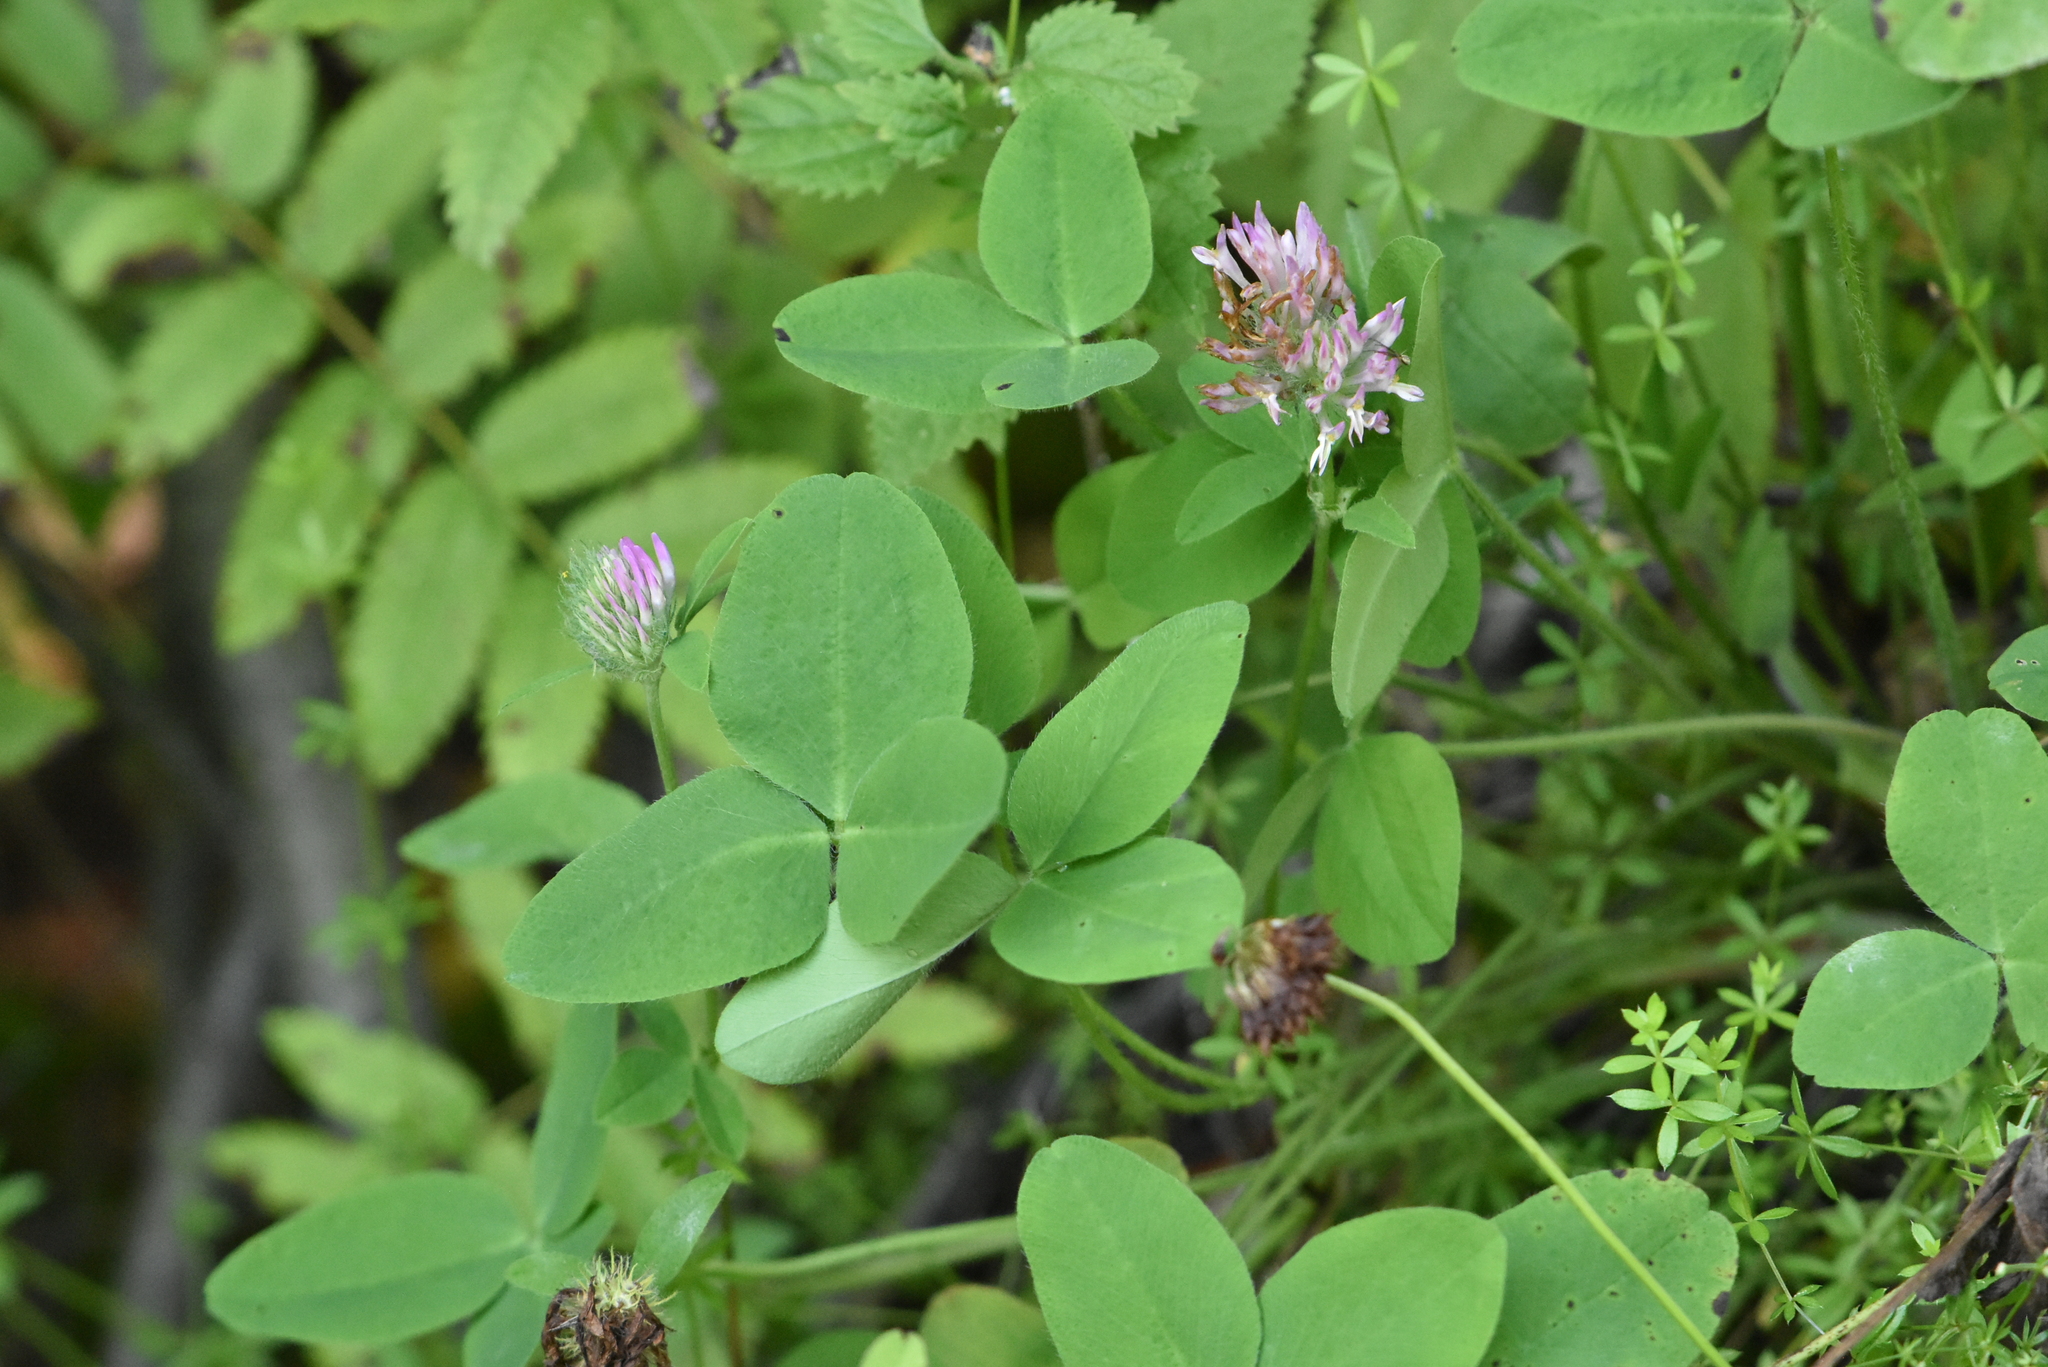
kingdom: Plantae
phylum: Tracheophyta
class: Magnoliopsida
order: Fabales
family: Fabaceae
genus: Trifolium
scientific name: Trifolium pratense
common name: Red clover
